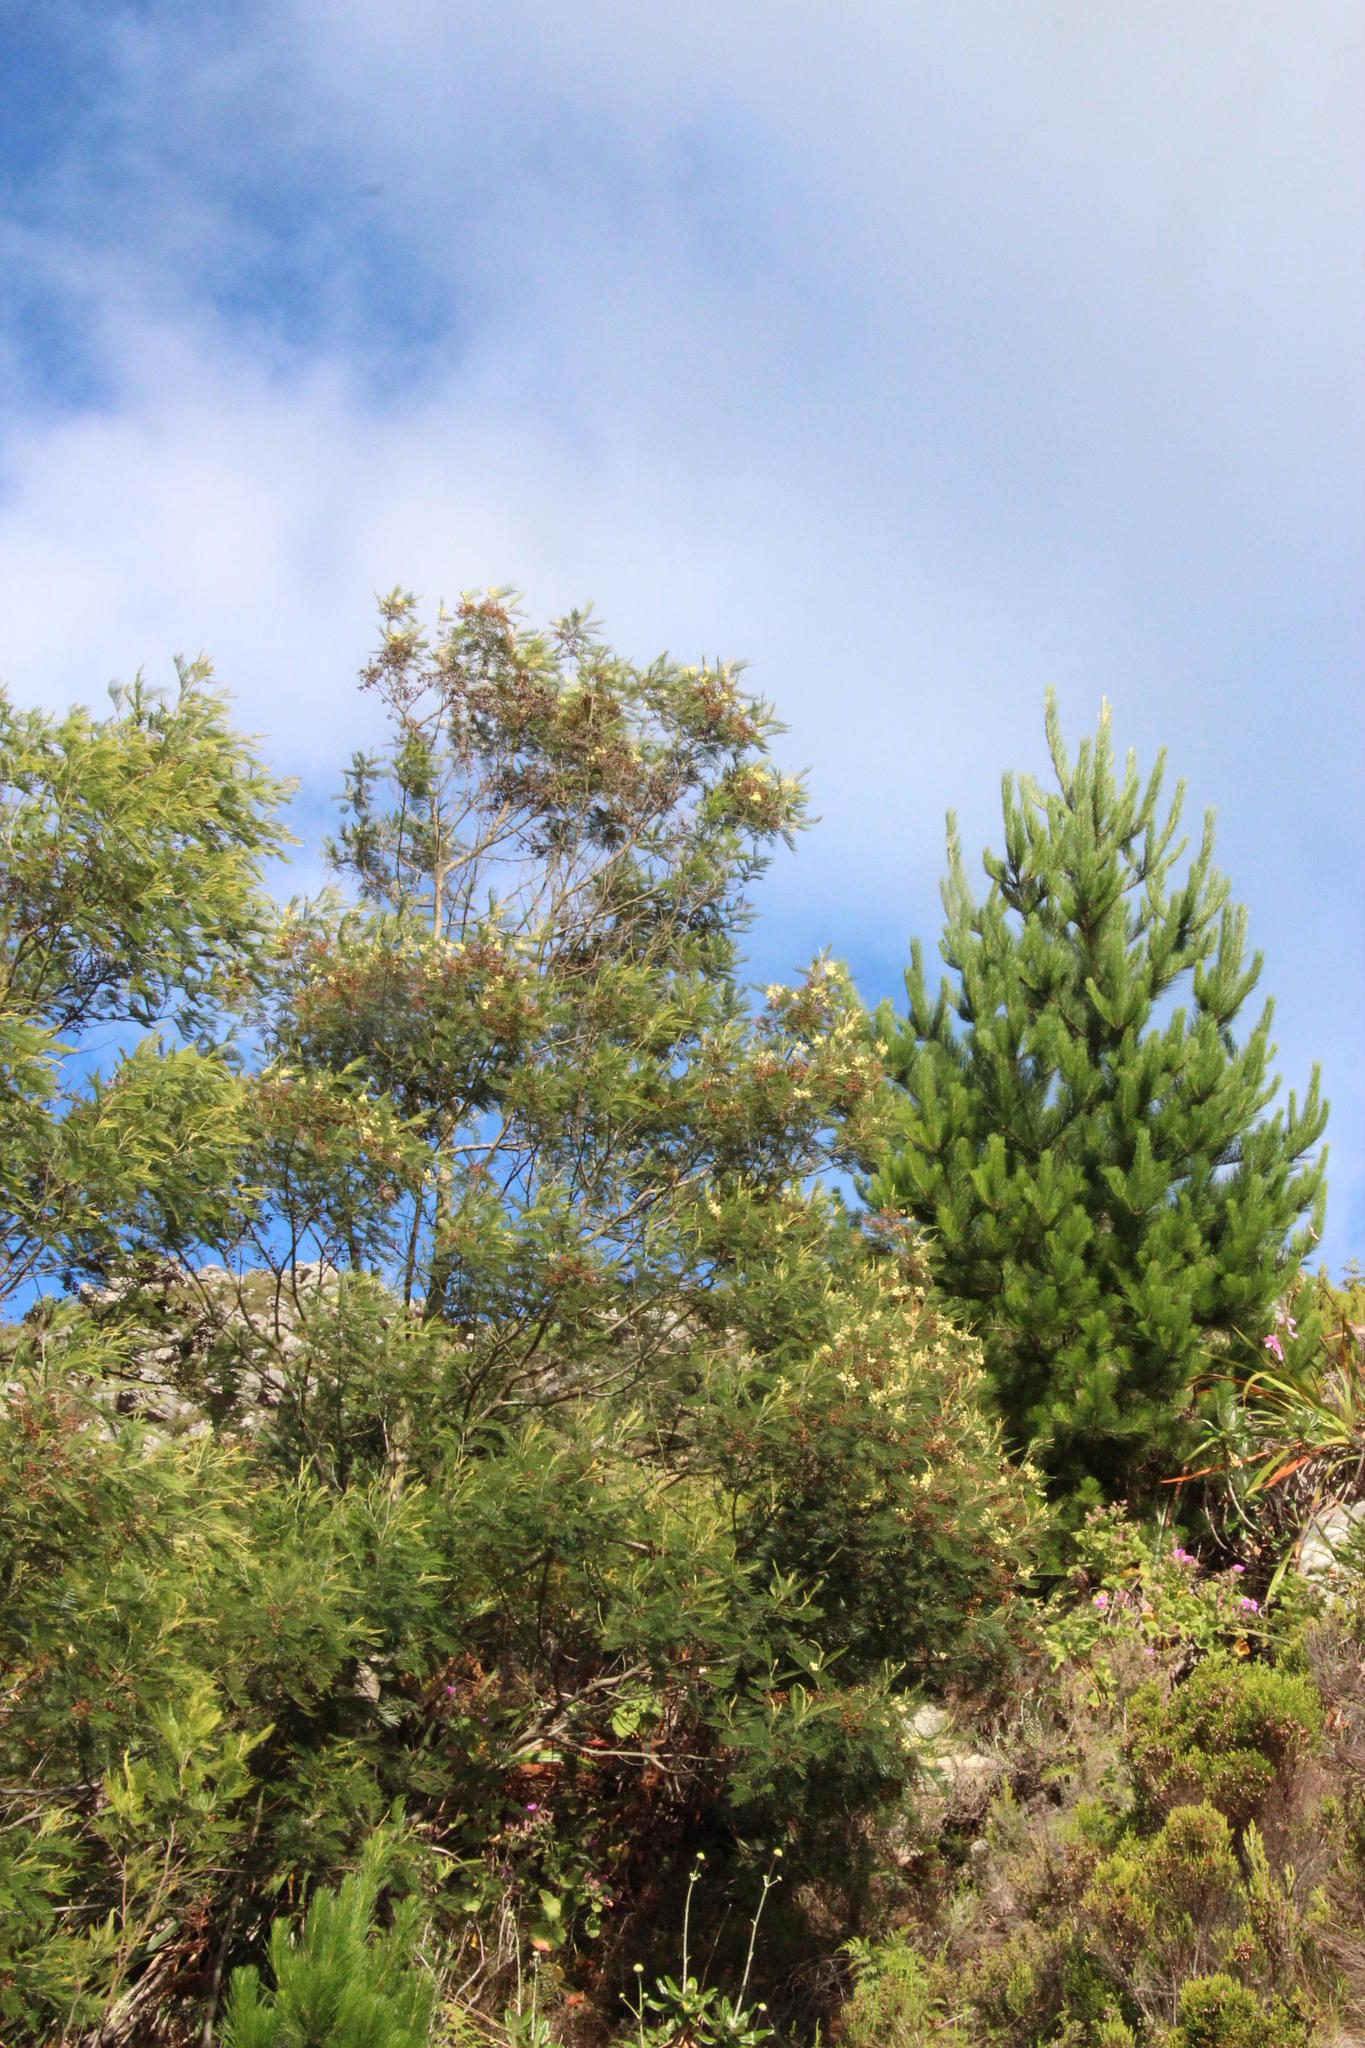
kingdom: Plantae
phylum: Tracheophyta
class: Magnoliopsida
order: Fabales
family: Fabaceae
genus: Acacia
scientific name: Acacia mearnsii
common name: Black wattle
